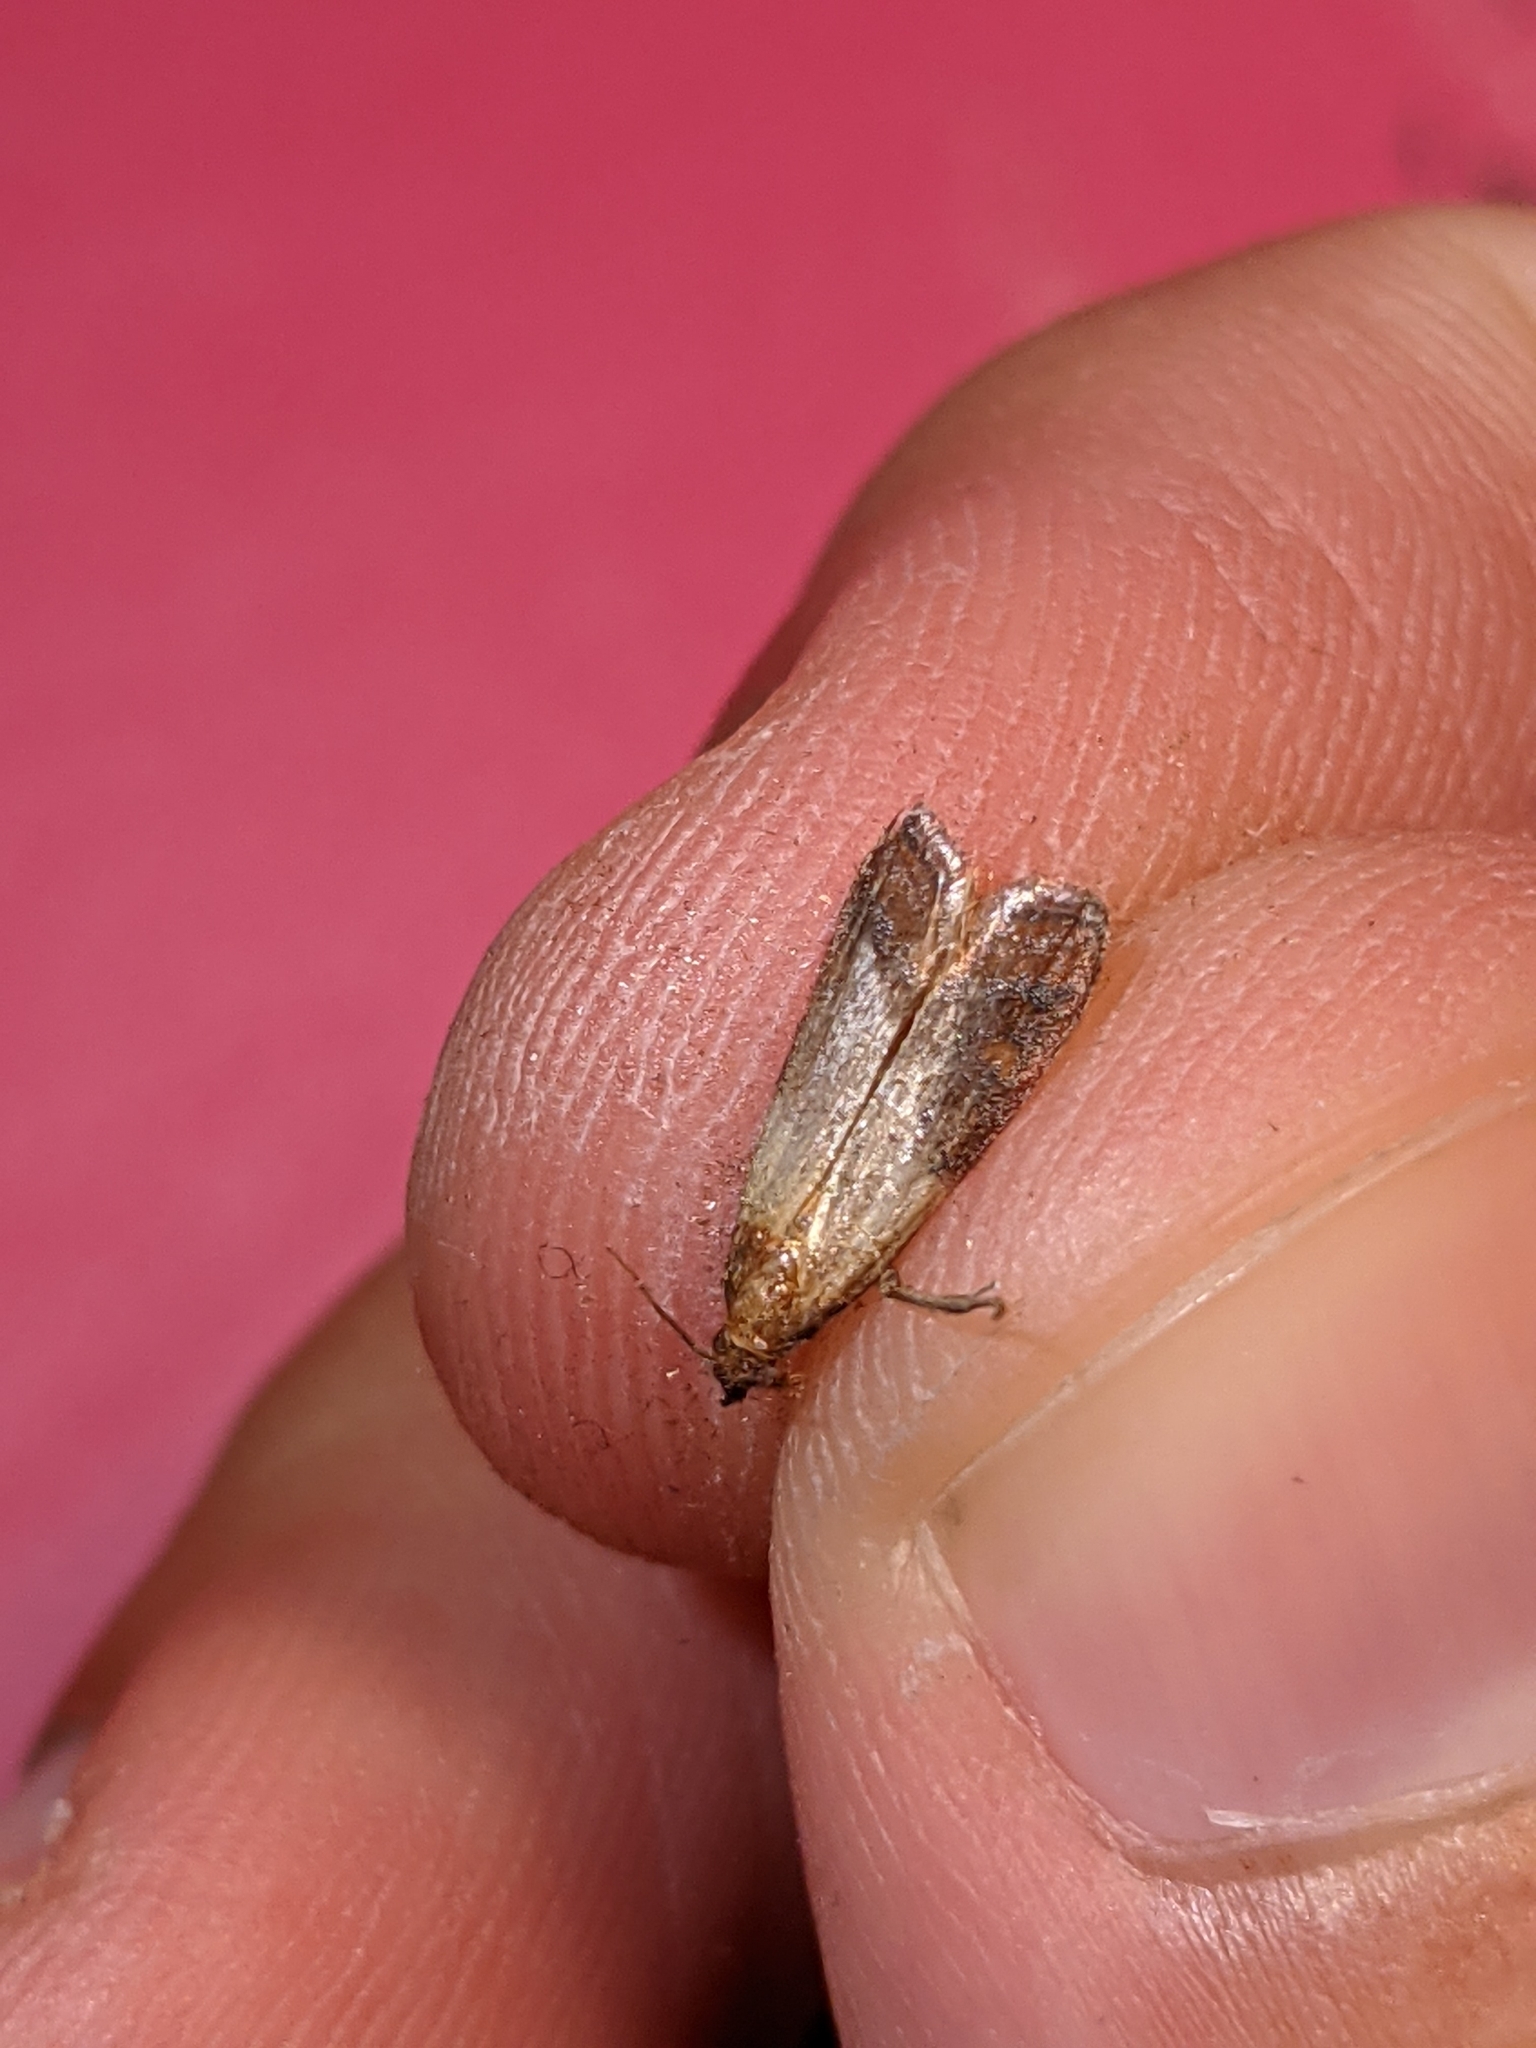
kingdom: Animalia
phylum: Arthropoda
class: Insecta
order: Lepidoptera
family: Pyralidae
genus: Plodia
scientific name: Plodia interpunctella
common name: Indian meal moth
